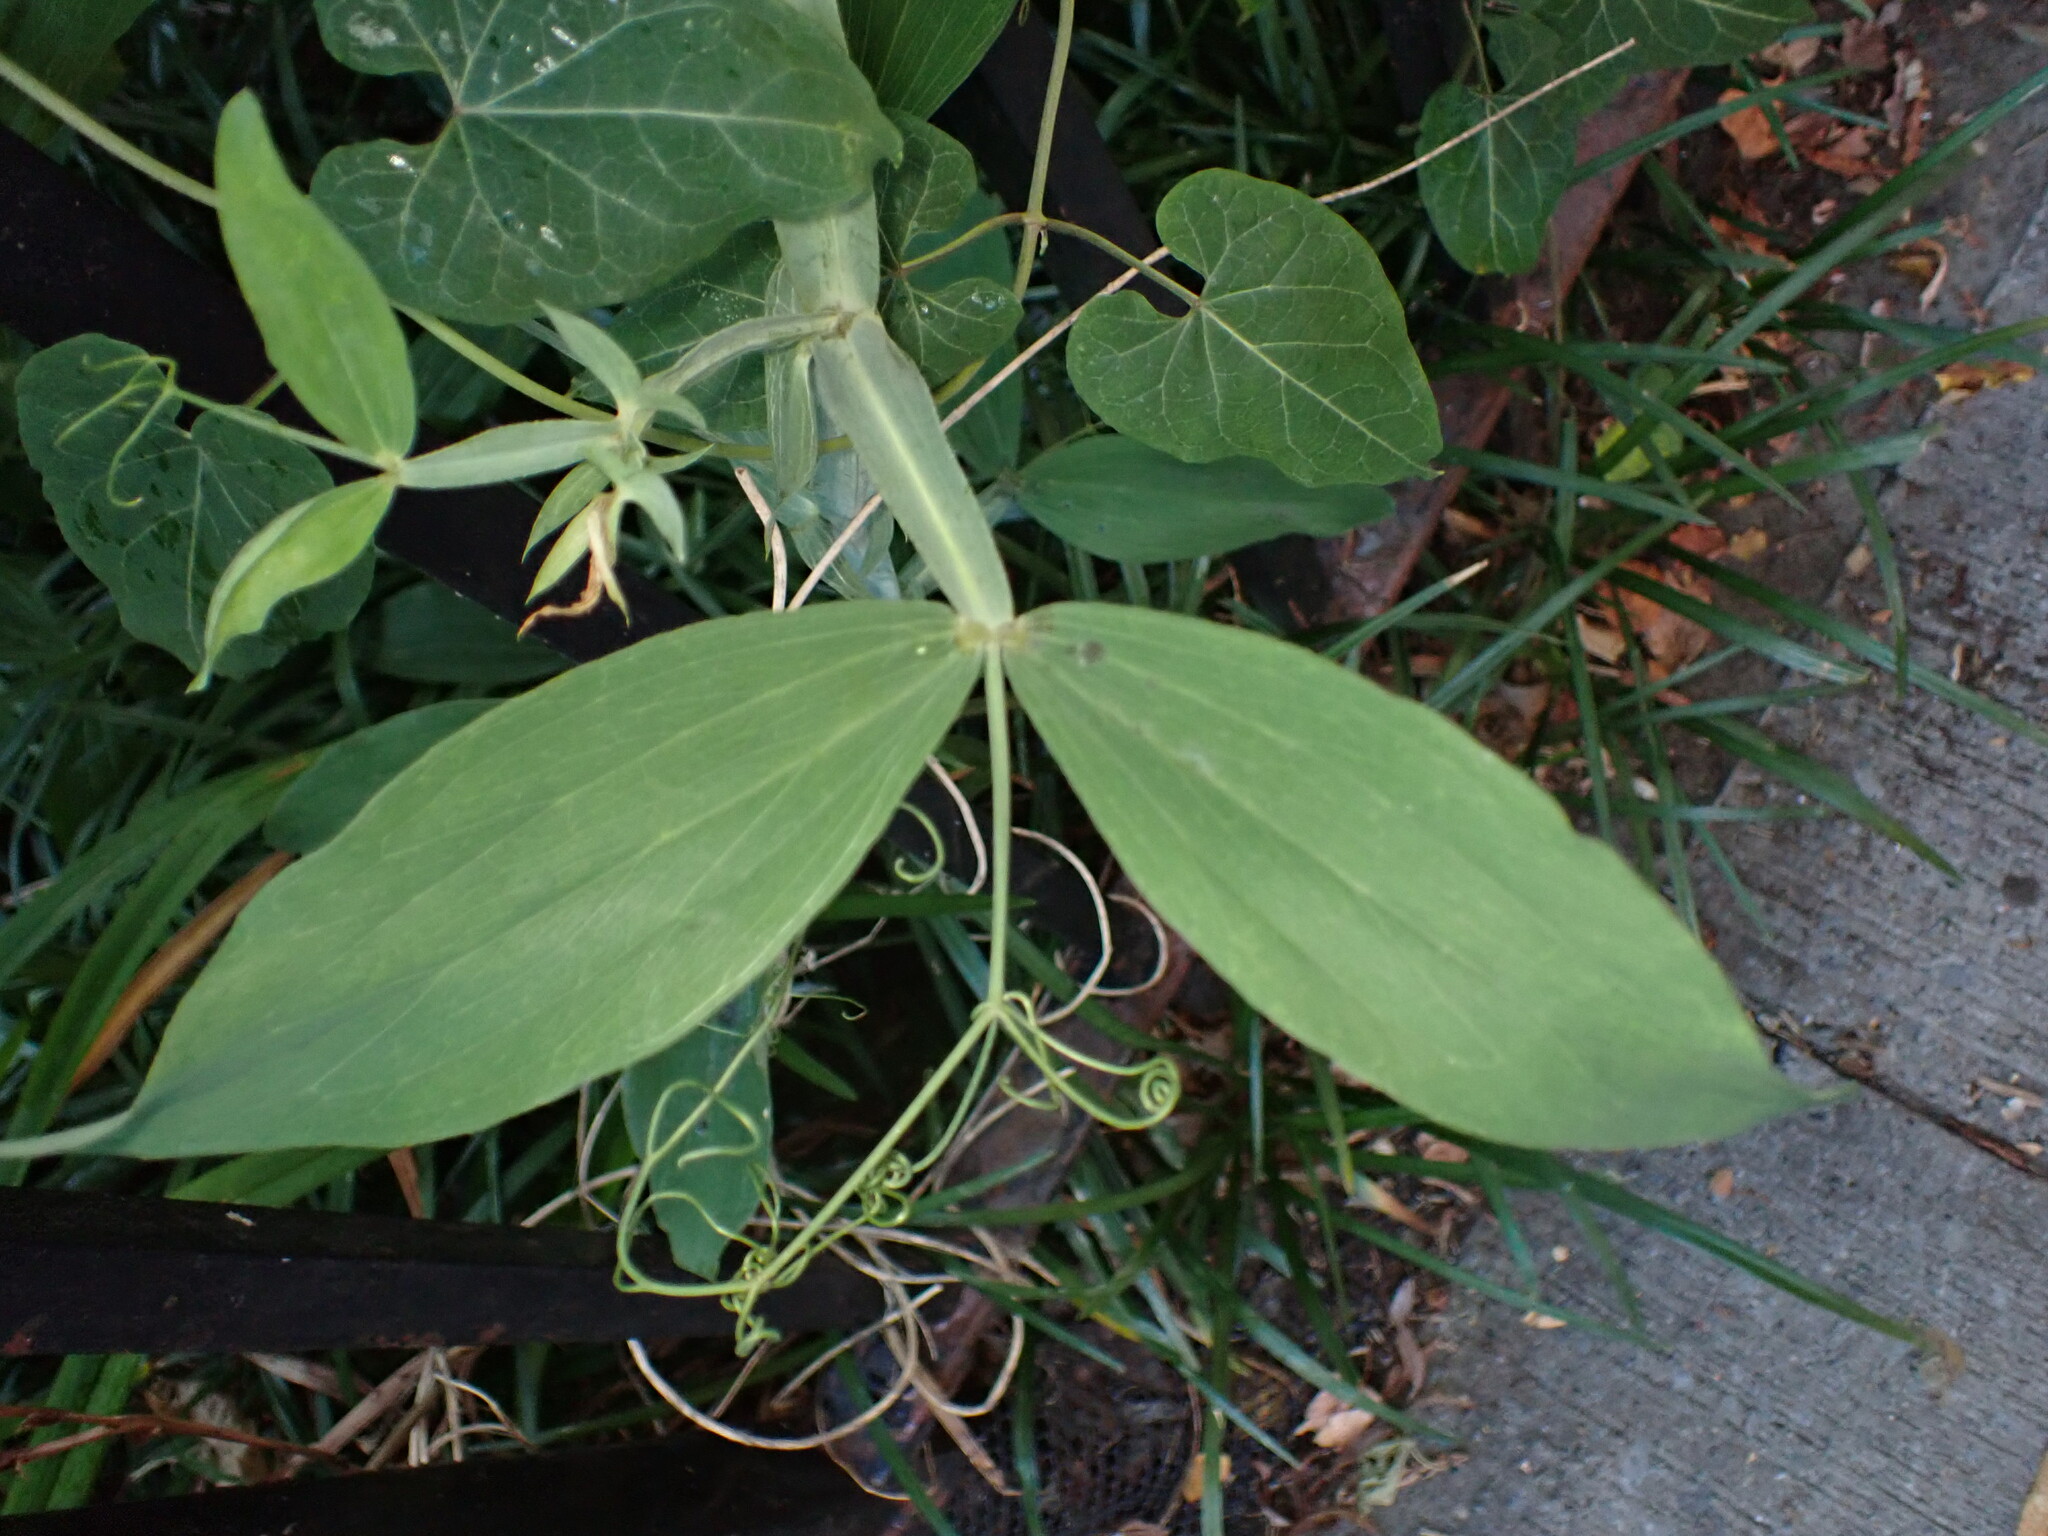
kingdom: Plantae
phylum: Tracheophyta
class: Magnoliopsida
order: Fabales
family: Fabaceae
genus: Lathyrus
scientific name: Lathyrus latifolius
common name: Perennial pea
